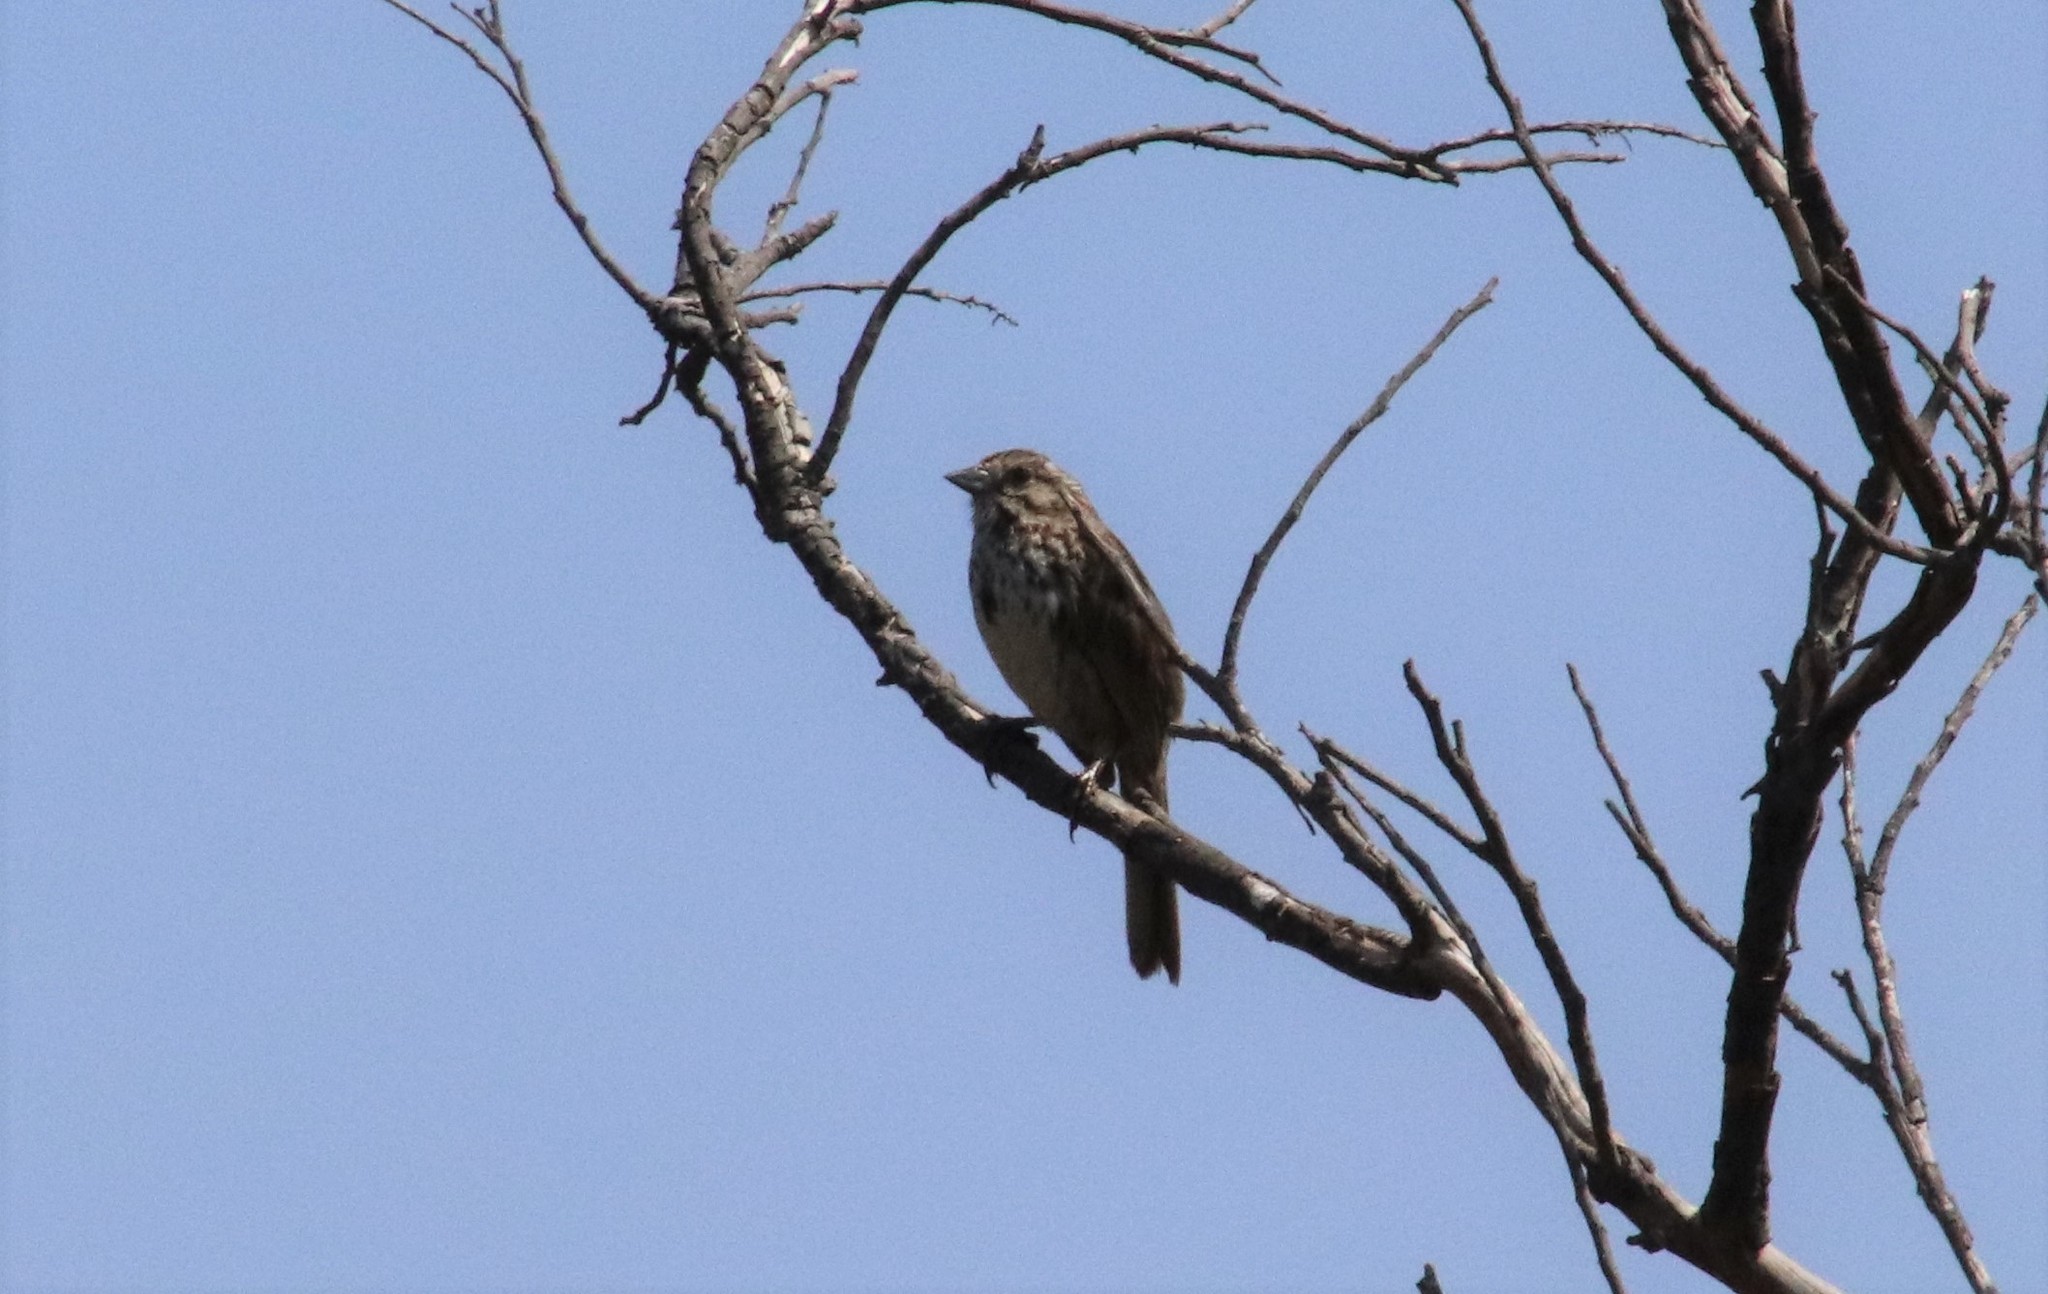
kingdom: Animalia
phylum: Chordata
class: Aves
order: Passeriformes
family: Passerellidae
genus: Melospiza
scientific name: Melospiza melodia
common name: Song sparrow
